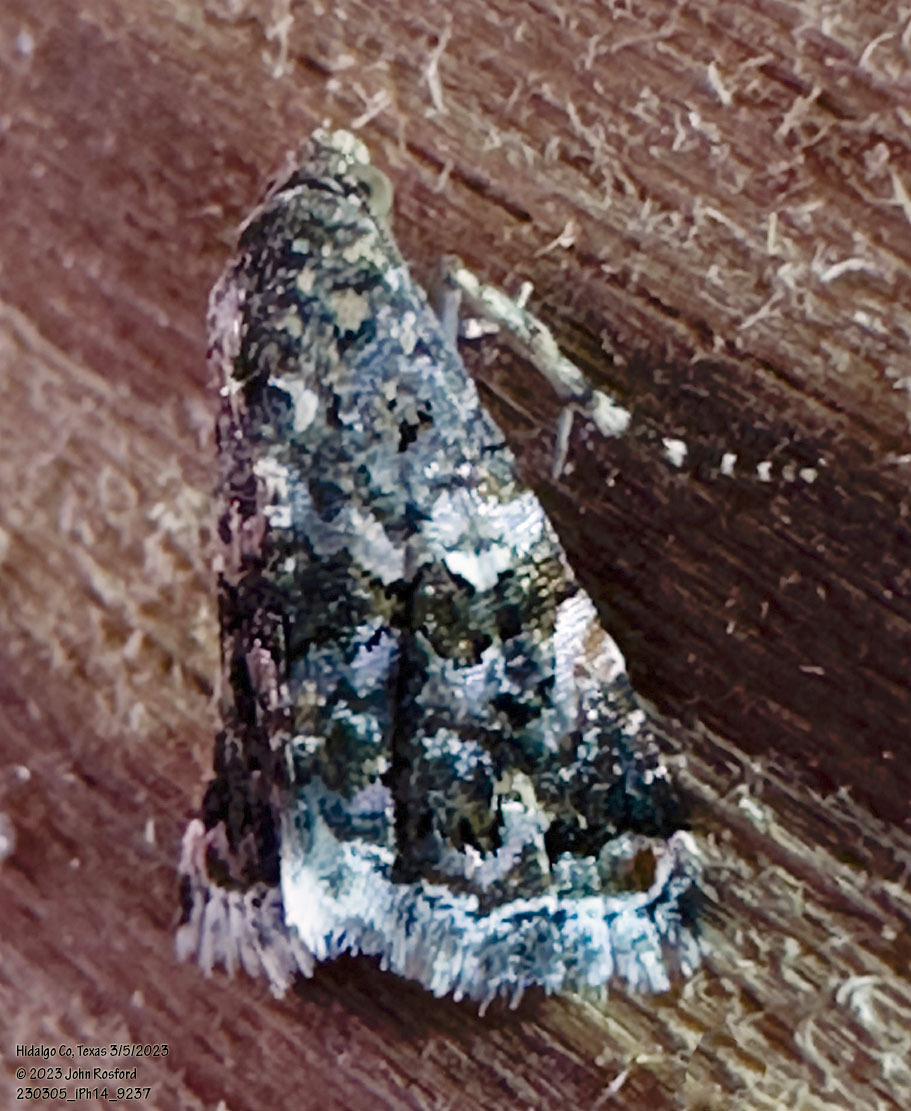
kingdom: Animalia
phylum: Arthropoda
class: Insecta
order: Lepidoptera
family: Noctuidae
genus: Tripudia
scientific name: Tripudia luxuriosa
